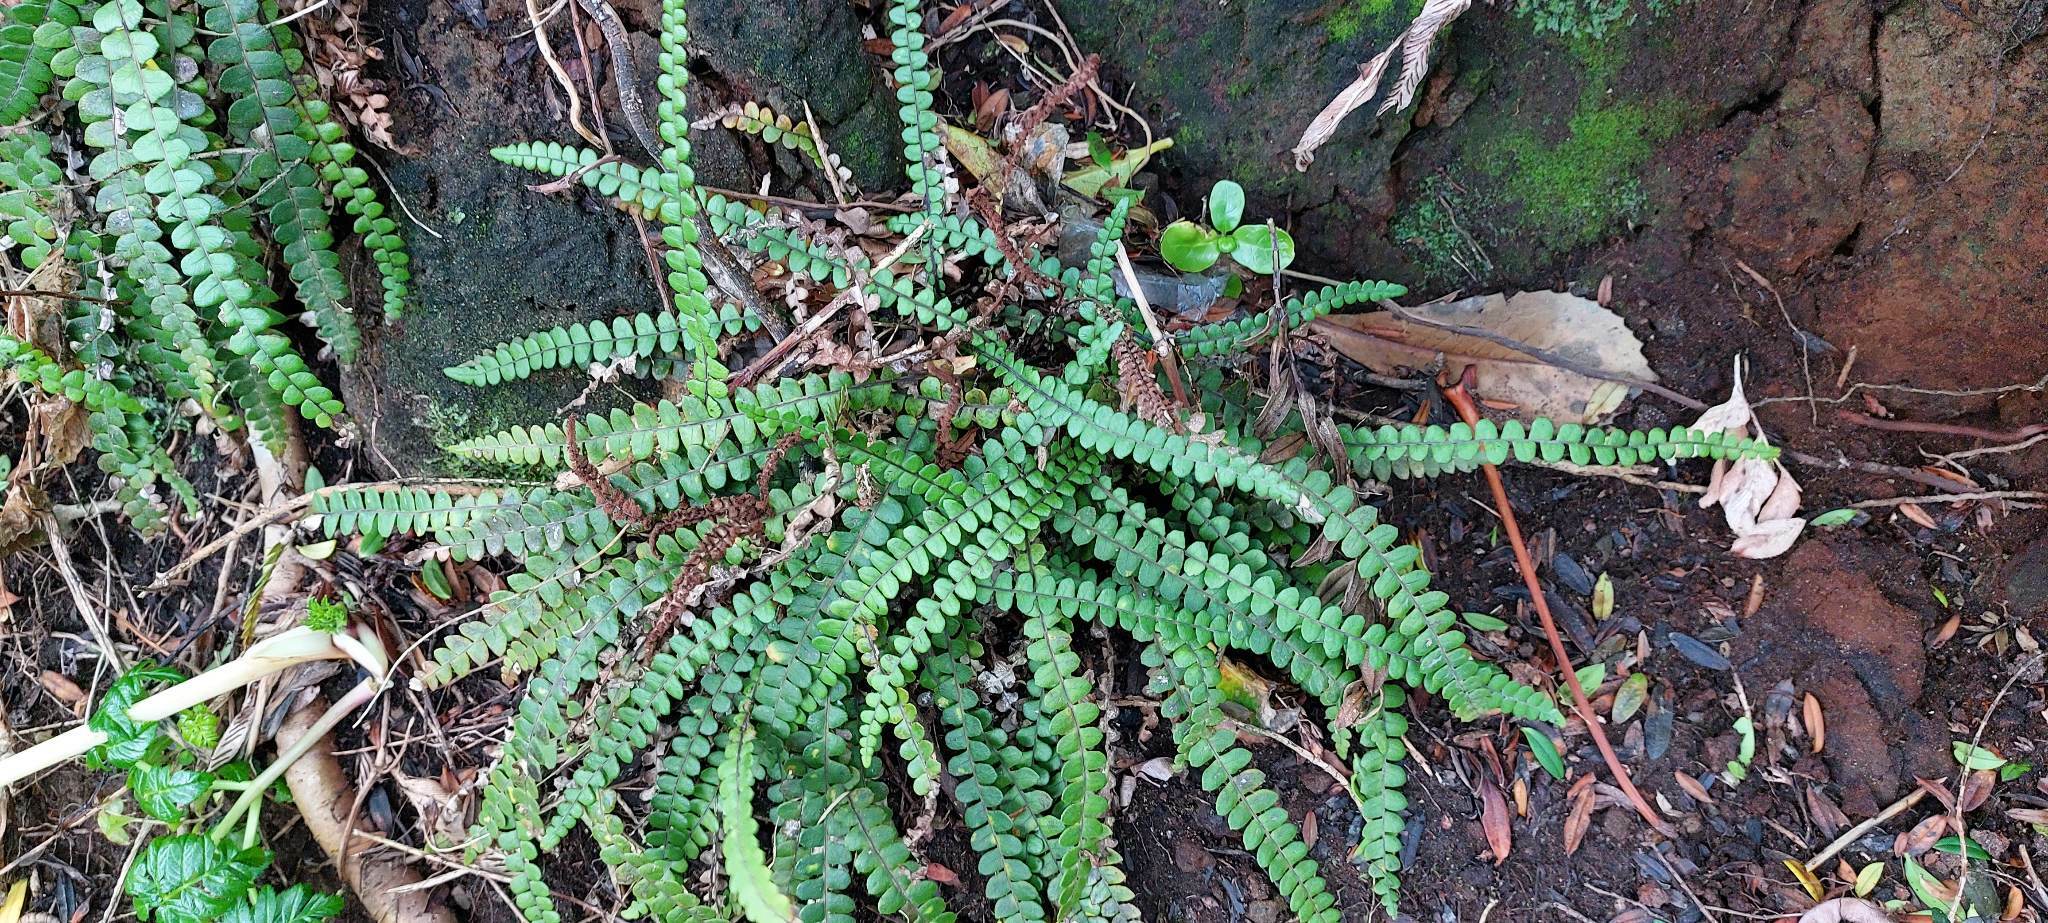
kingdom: Plantae
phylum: Tracheophyta
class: Polypodiopsida
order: Polypodiales
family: Blechnaceae
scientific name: Blechnaceae
